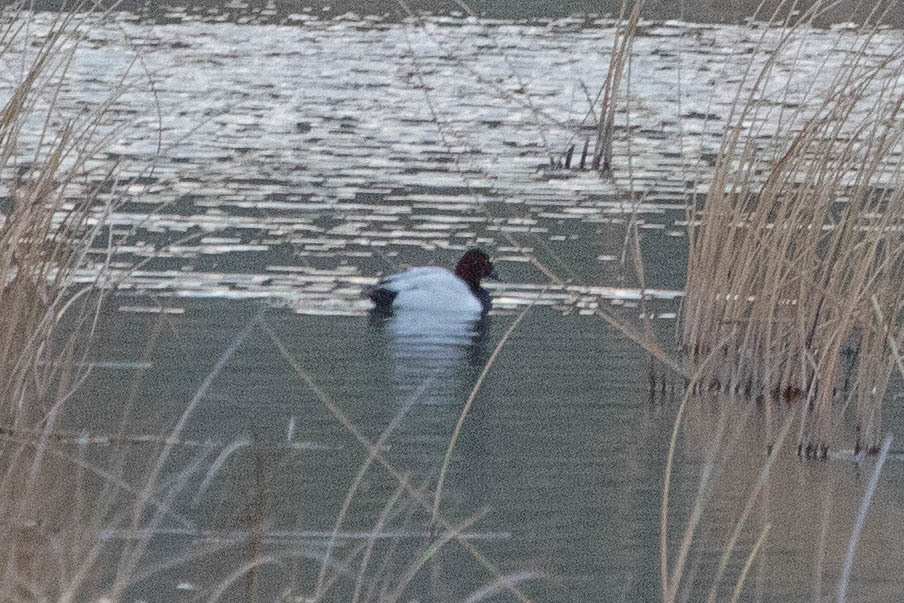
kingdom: Animalia
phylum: Chordata
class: Aves
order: Anseriformes
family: Anatidae
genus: Aythya
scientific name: Aythya valisineria
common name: Canvasback
